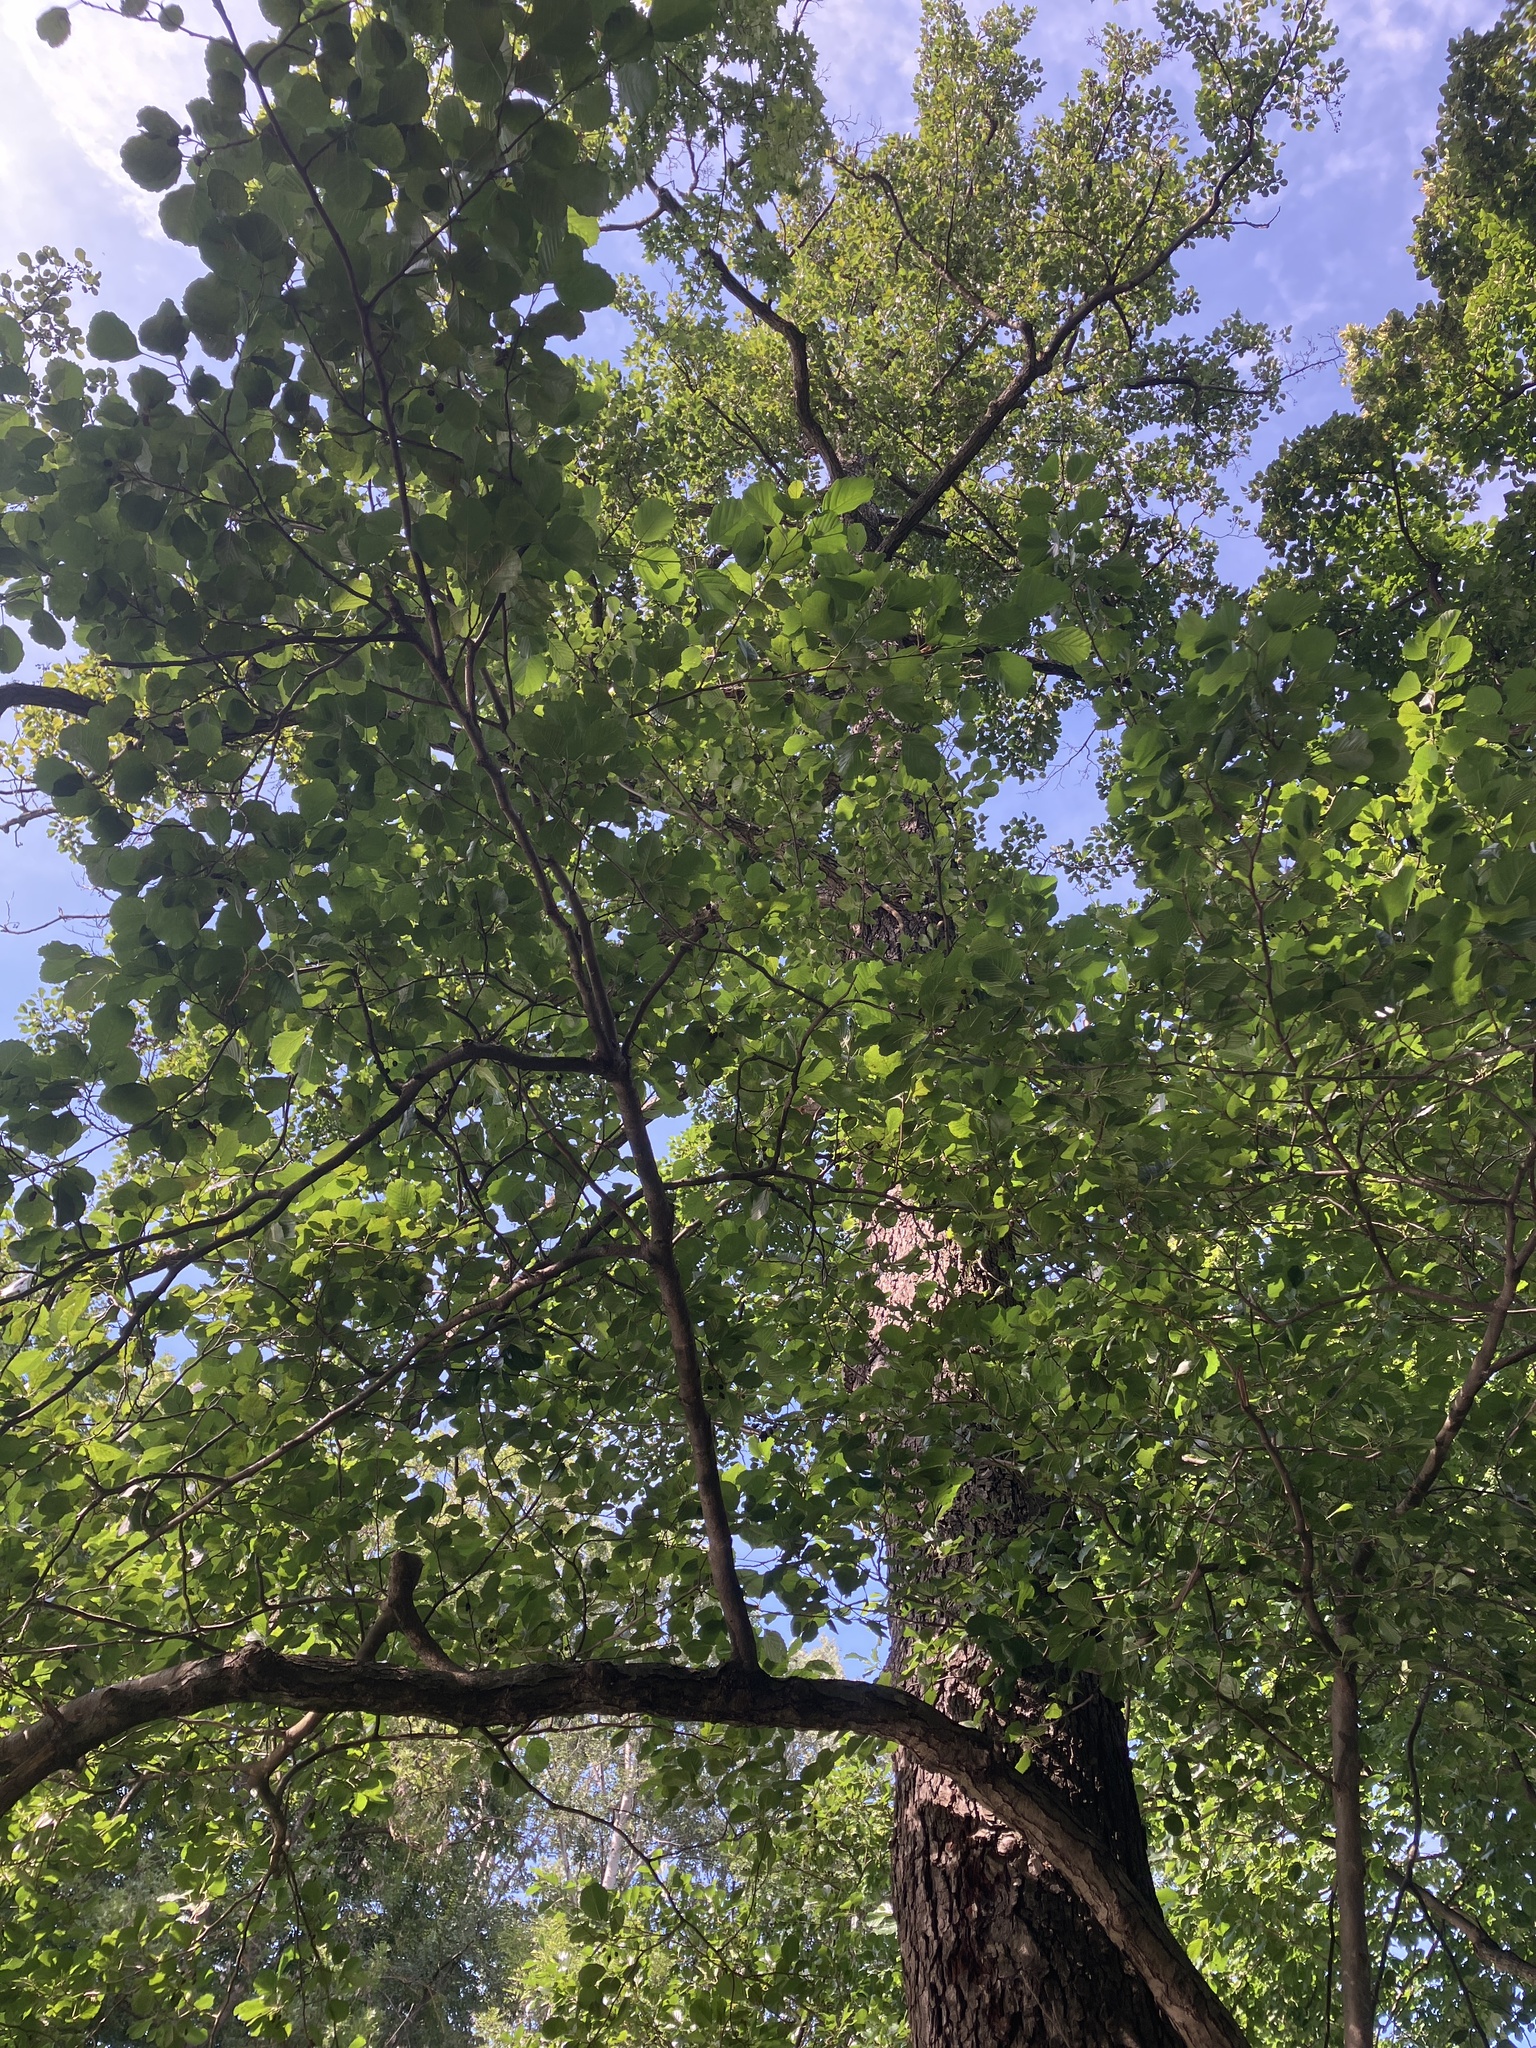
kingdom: Plantae
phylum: Tracheophyta
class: Magnoliopsida
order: Fagales
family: Betulaceae
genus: Alnus
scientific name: Alnus glutinosa
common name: Black alder
